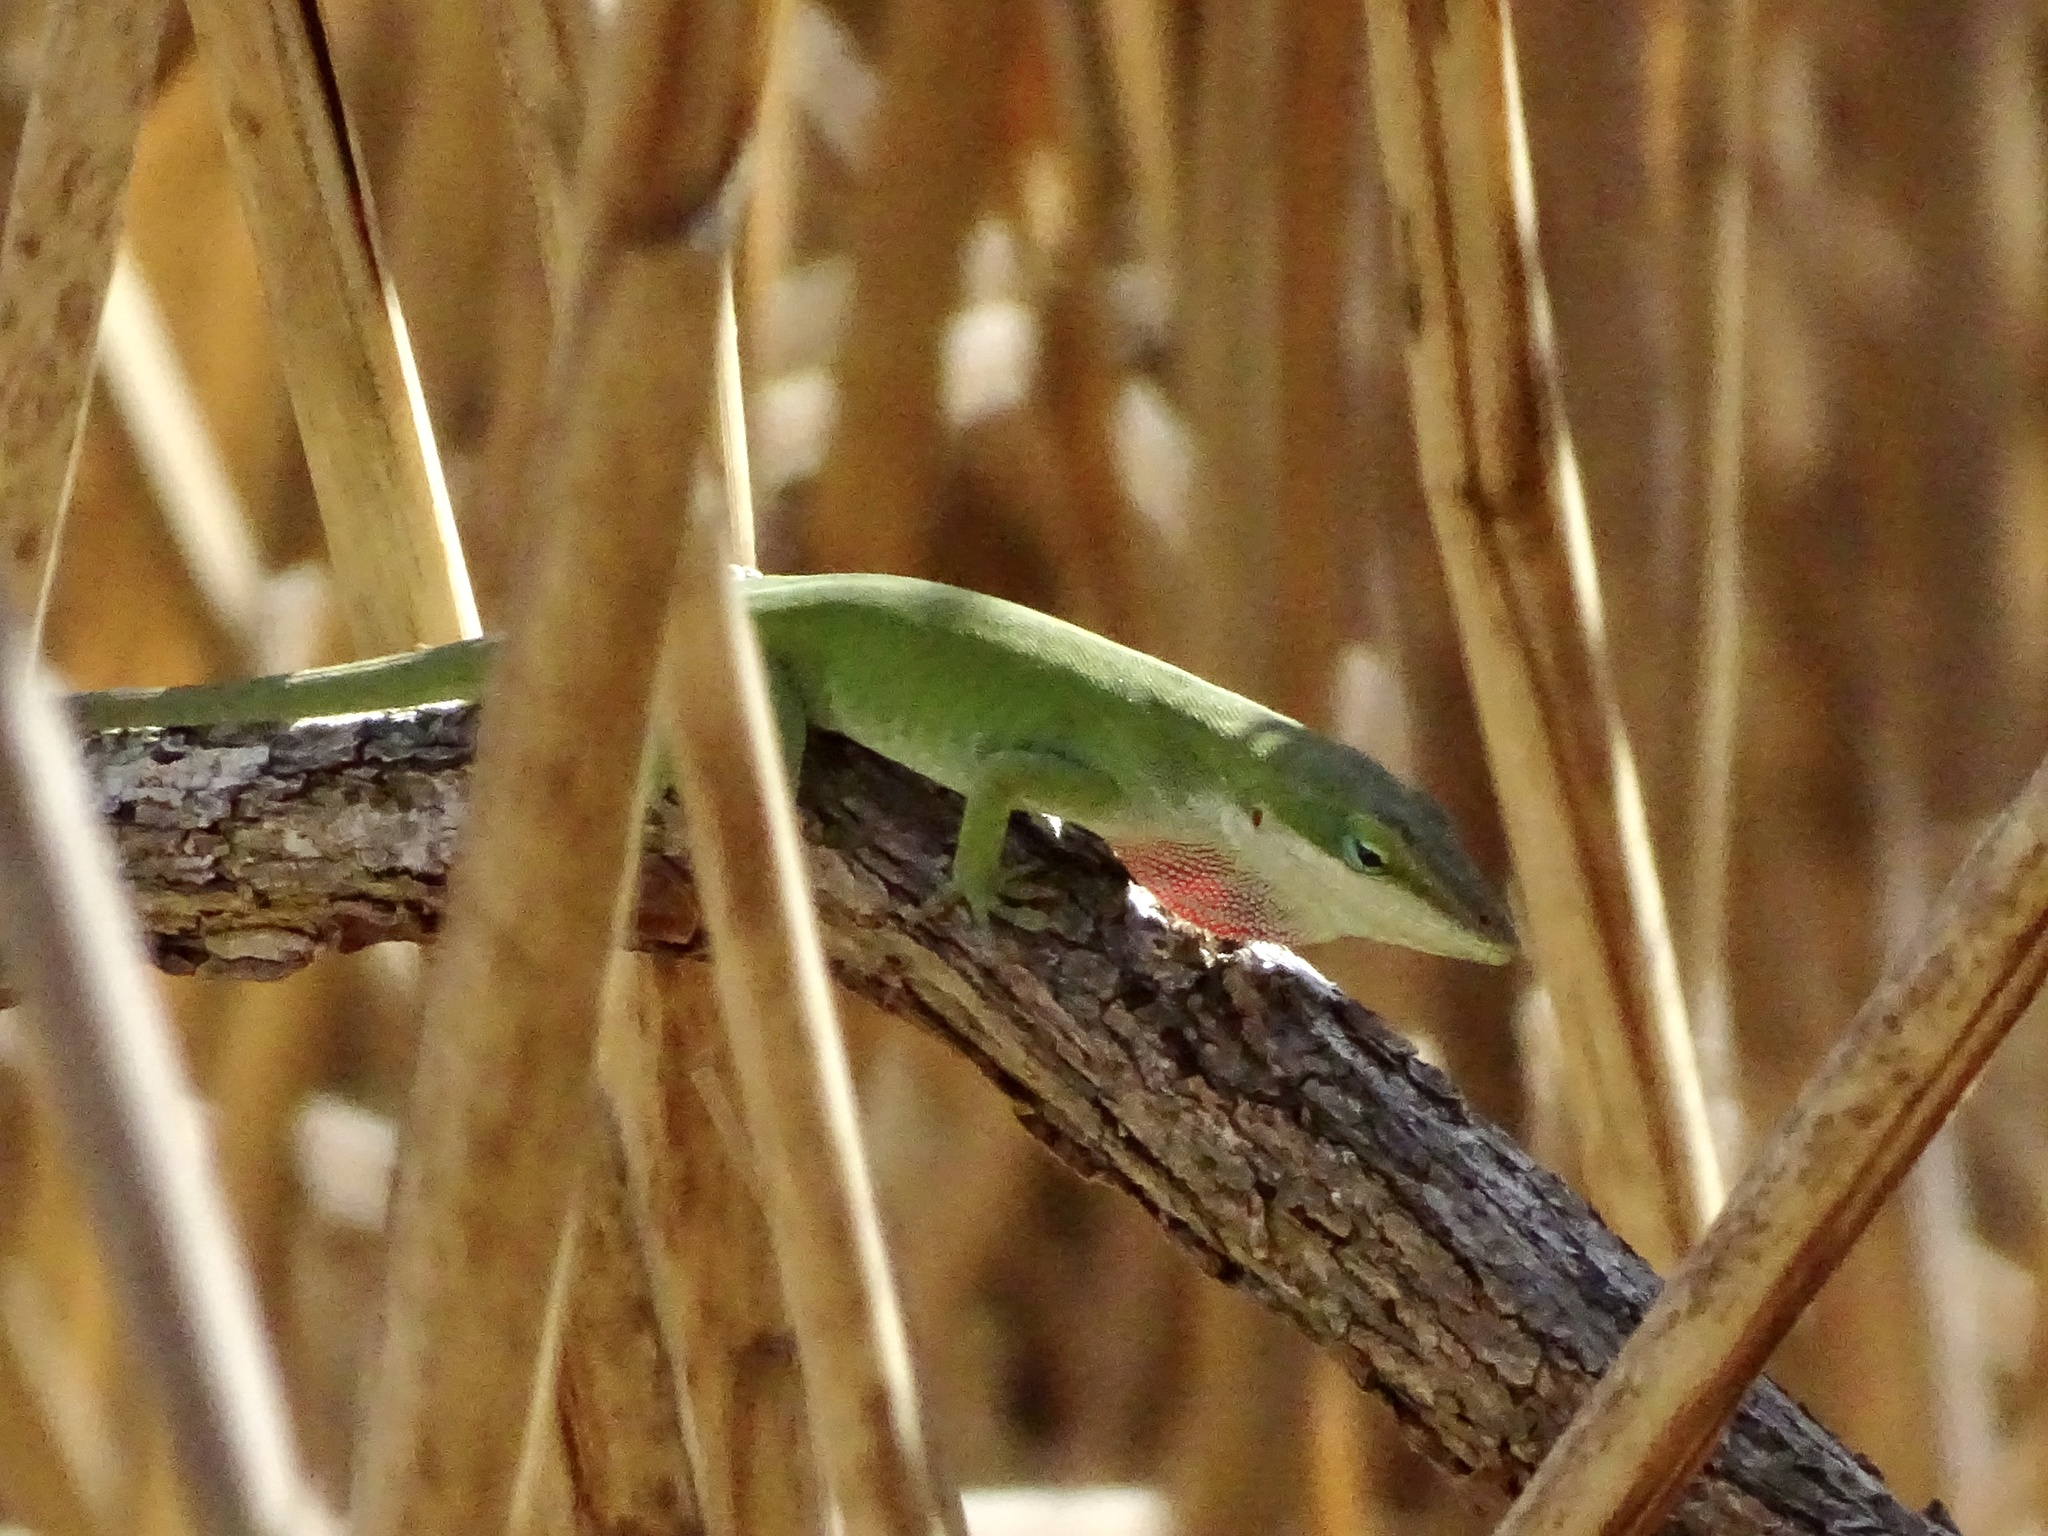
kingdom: Animalia
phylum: Chordata
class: Squamata
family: Dactyloidae
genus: Anolis
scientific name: Anolis carolinensis
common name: Green anole
